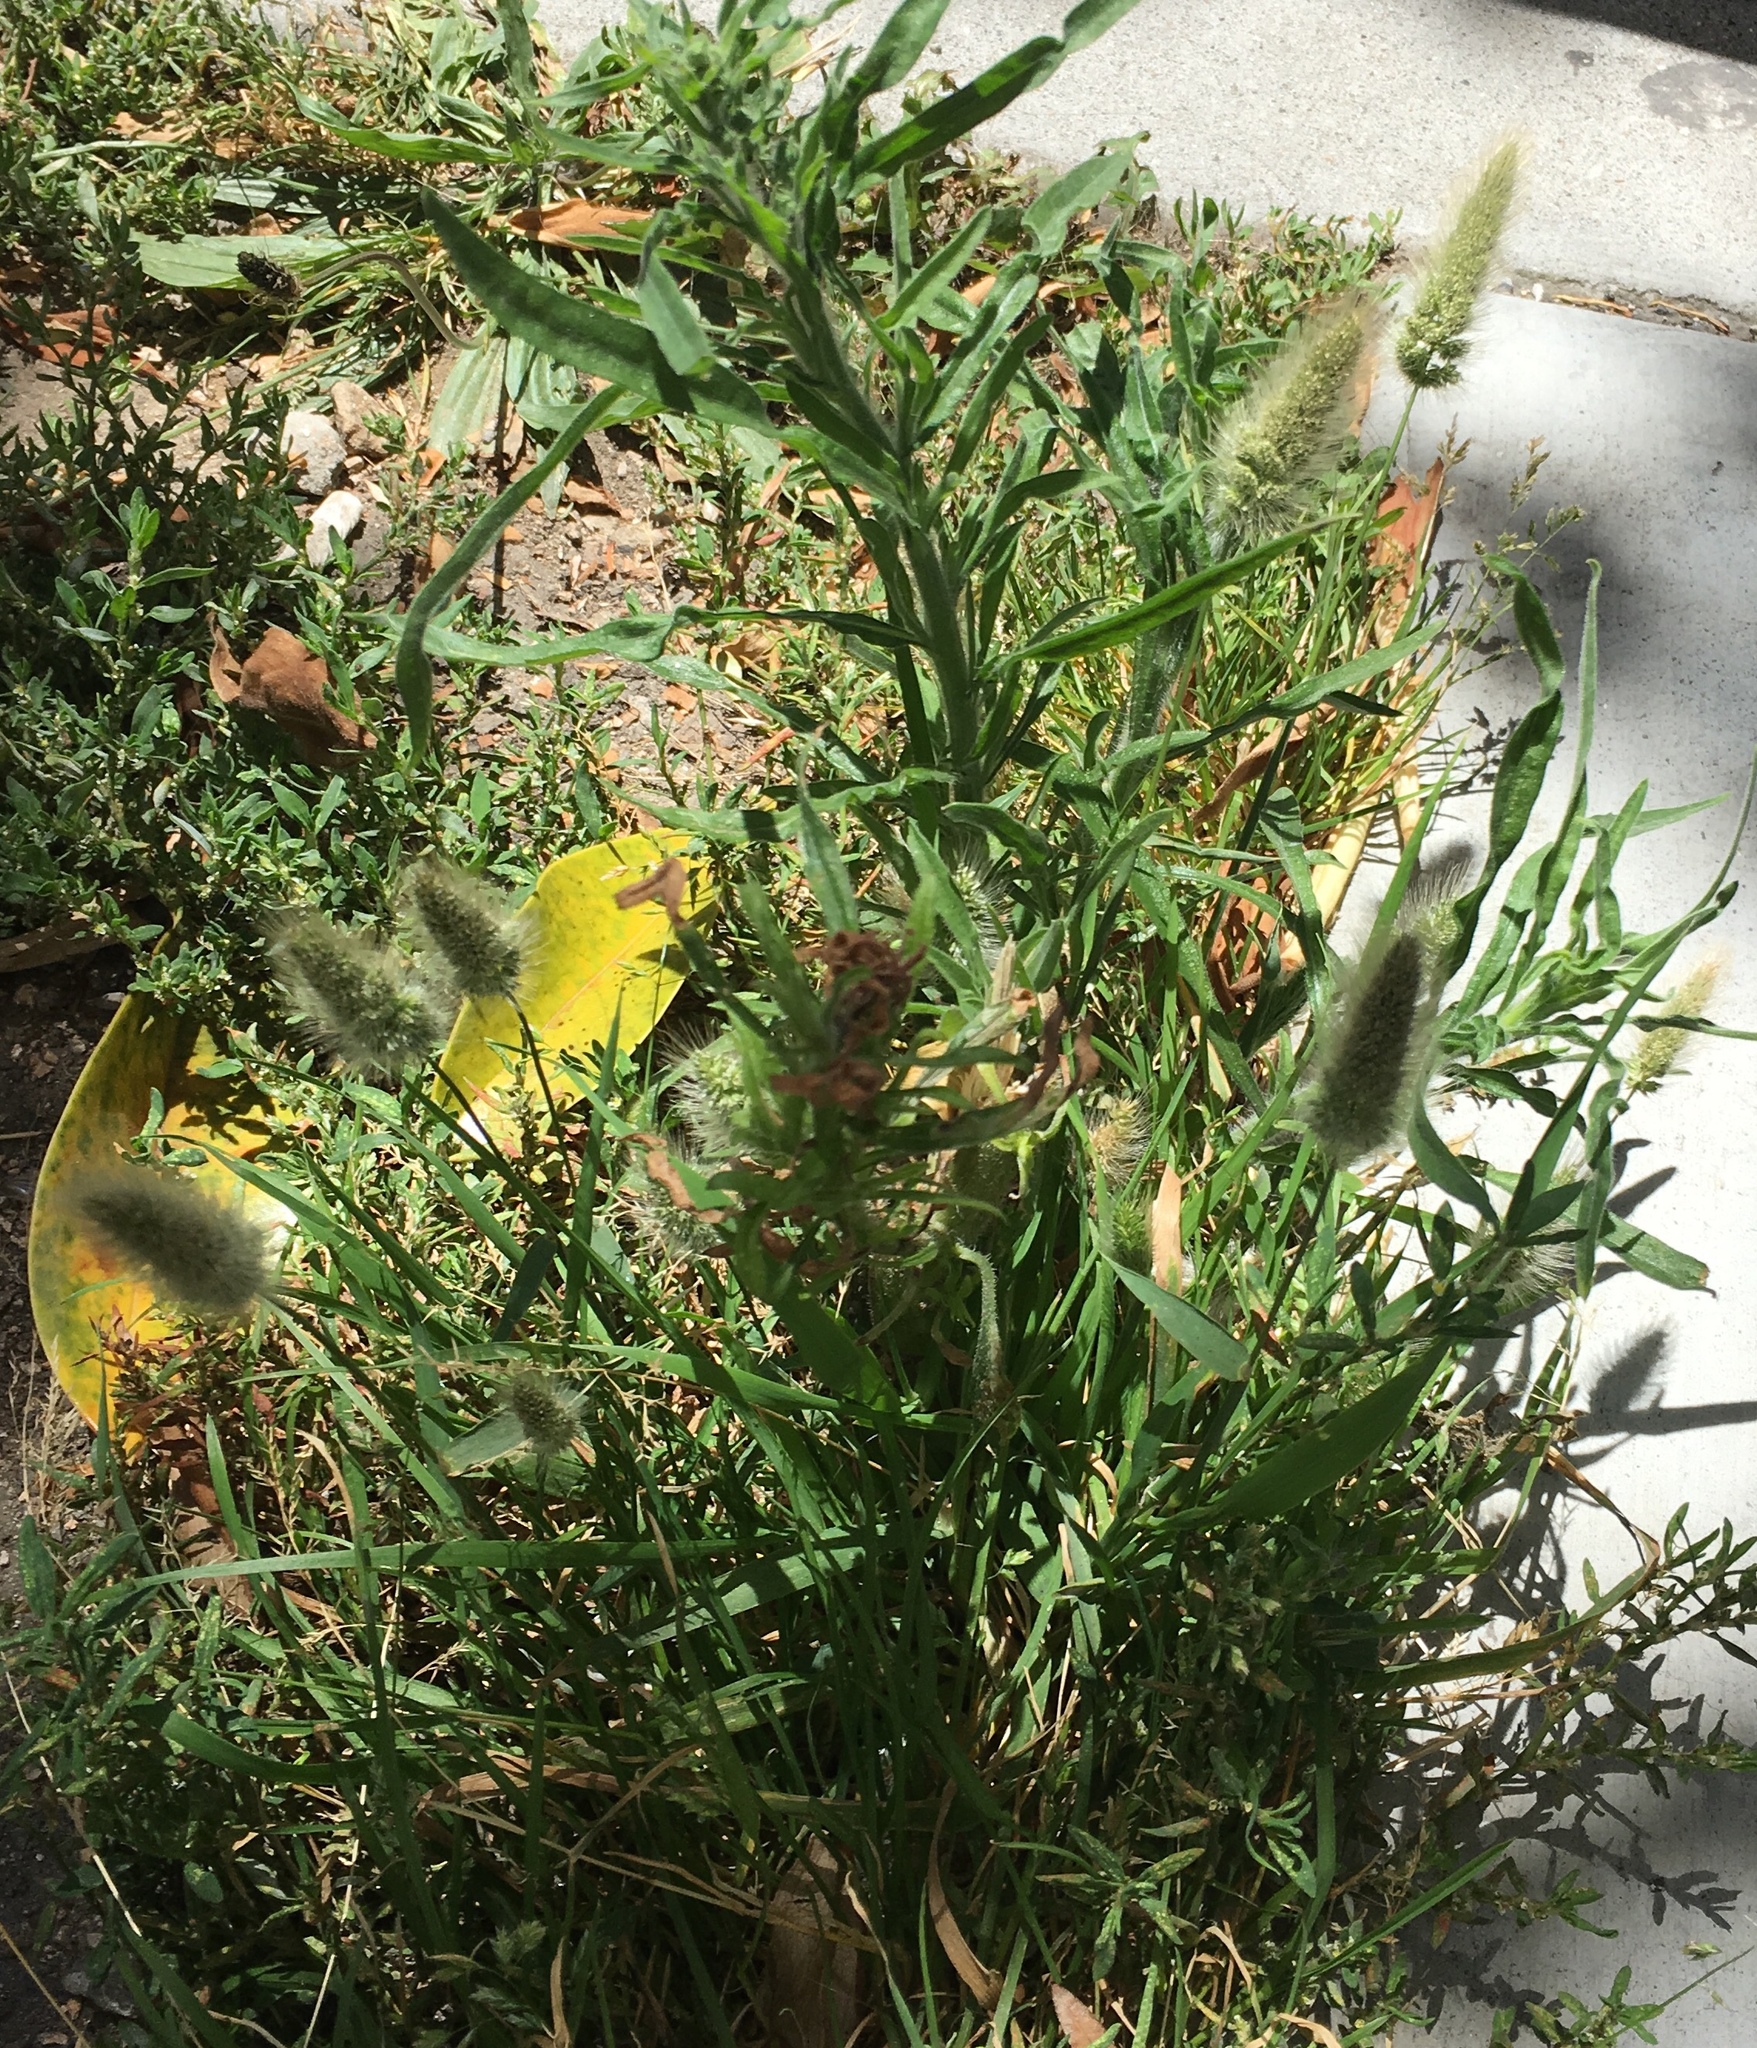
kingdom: Plantae
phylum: Tracheophyta
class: Liliopsida
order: Poales
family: Poaceae
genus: Polypogon
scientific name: Polypogon monspeliensis
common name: Annual rabbitsfoot grass
